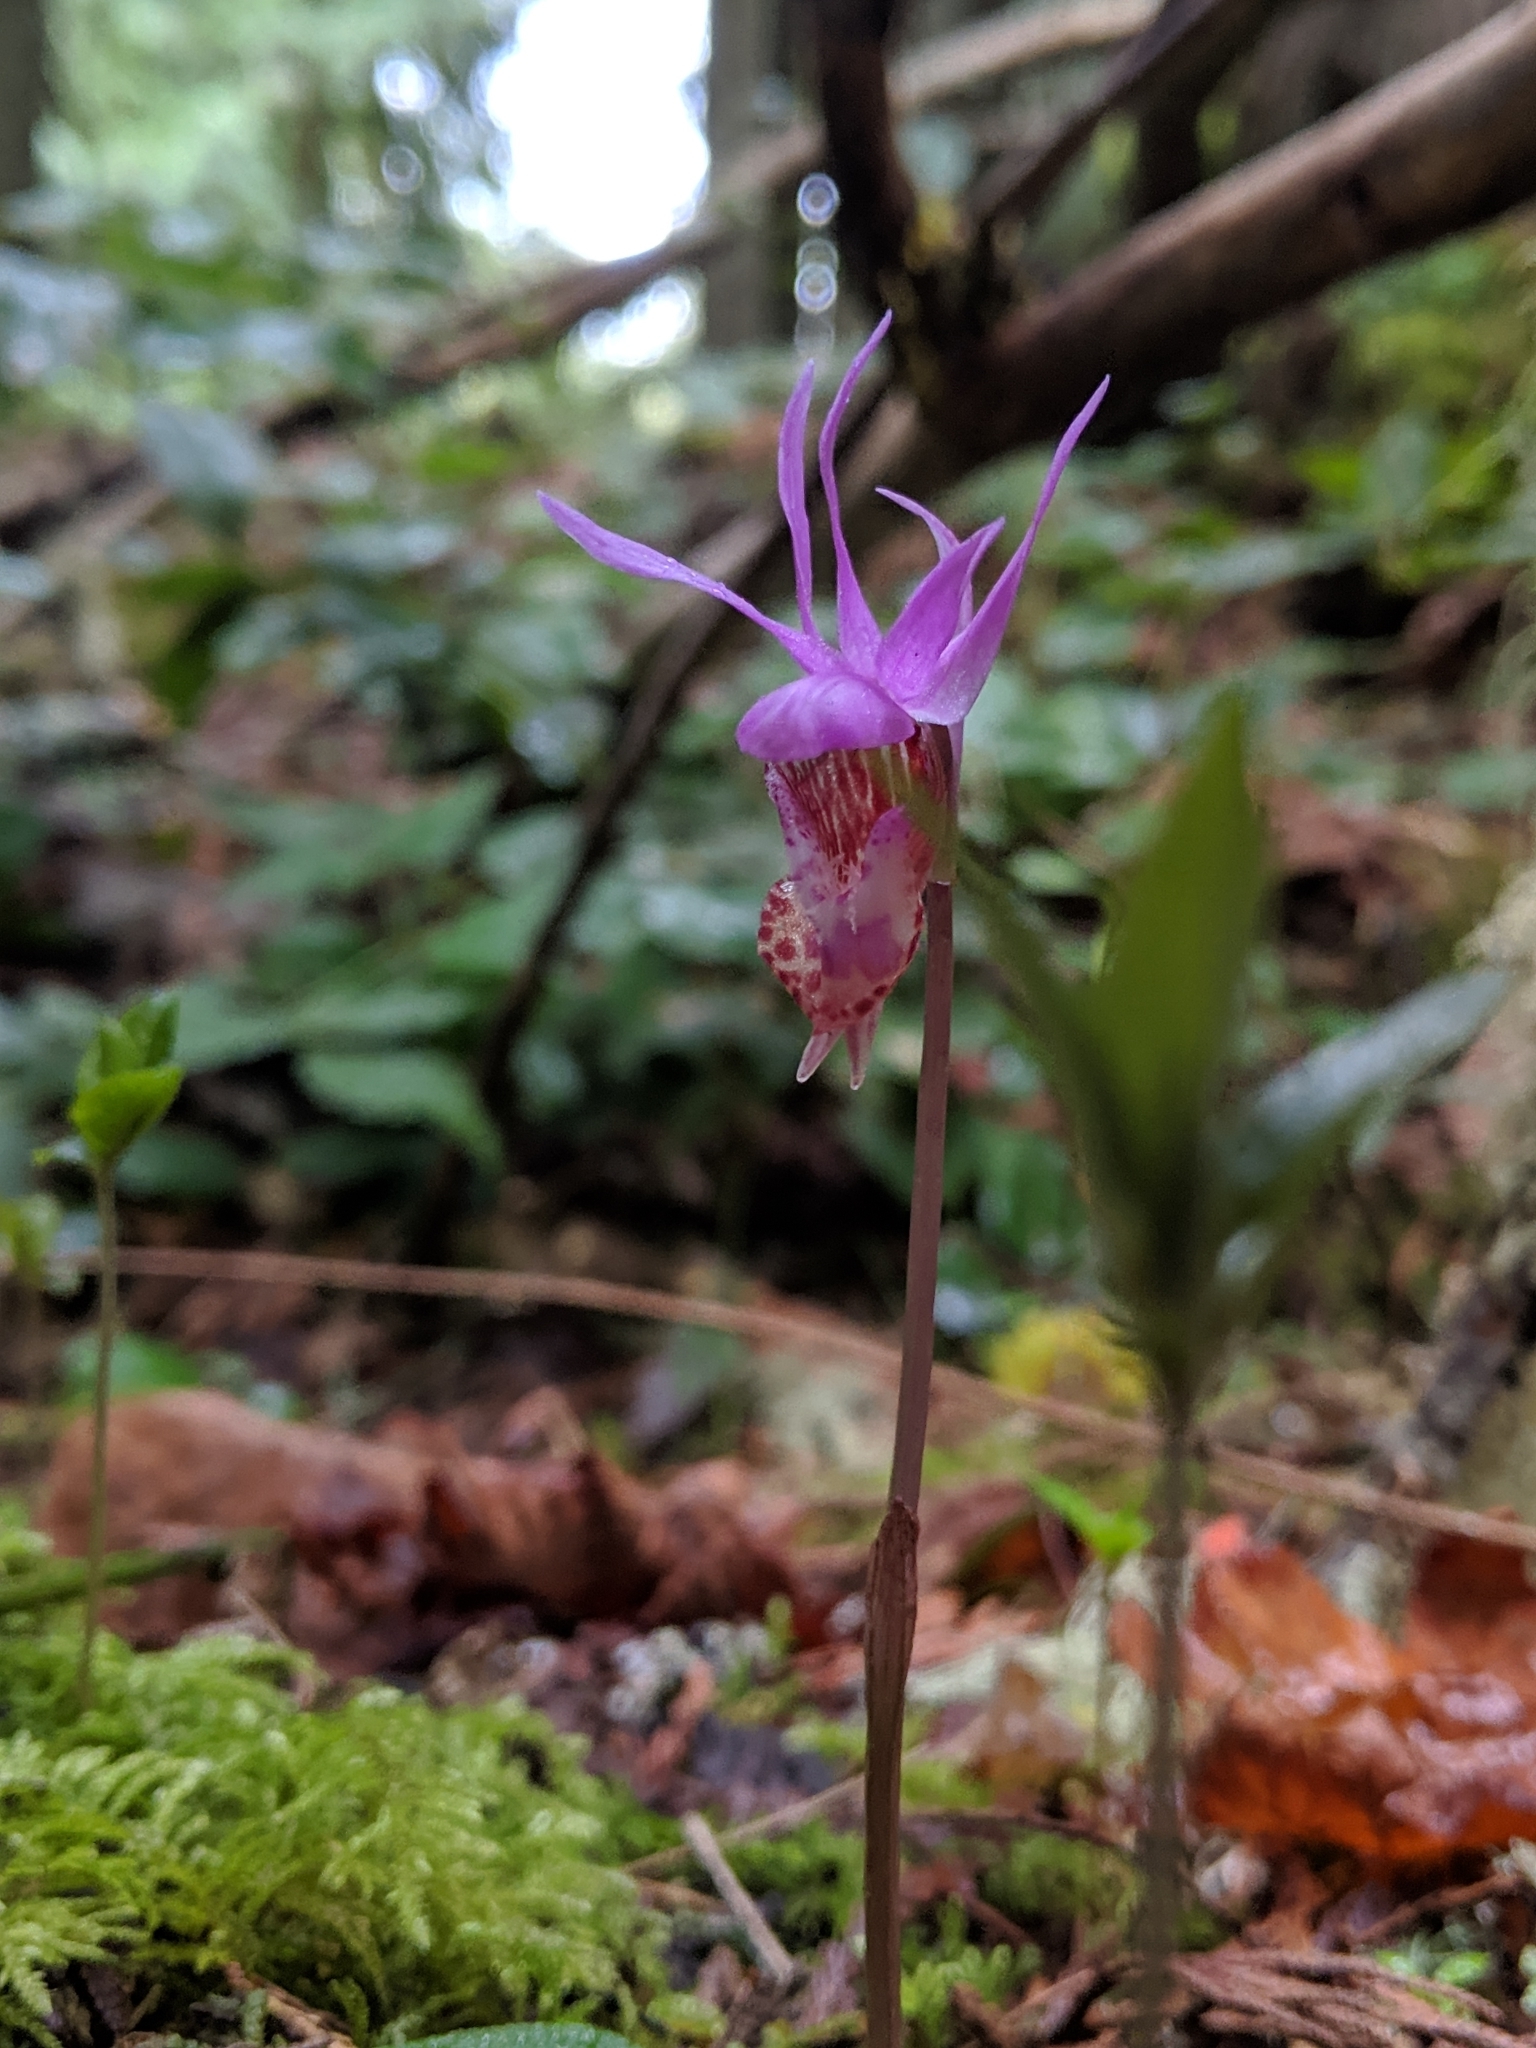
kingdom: Plantae
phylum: Tracheophyta
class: Liliopsida
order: Asparagales
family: Orchidaceae
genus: Calypso
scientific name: Calypso bulbosa
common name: Calypso
